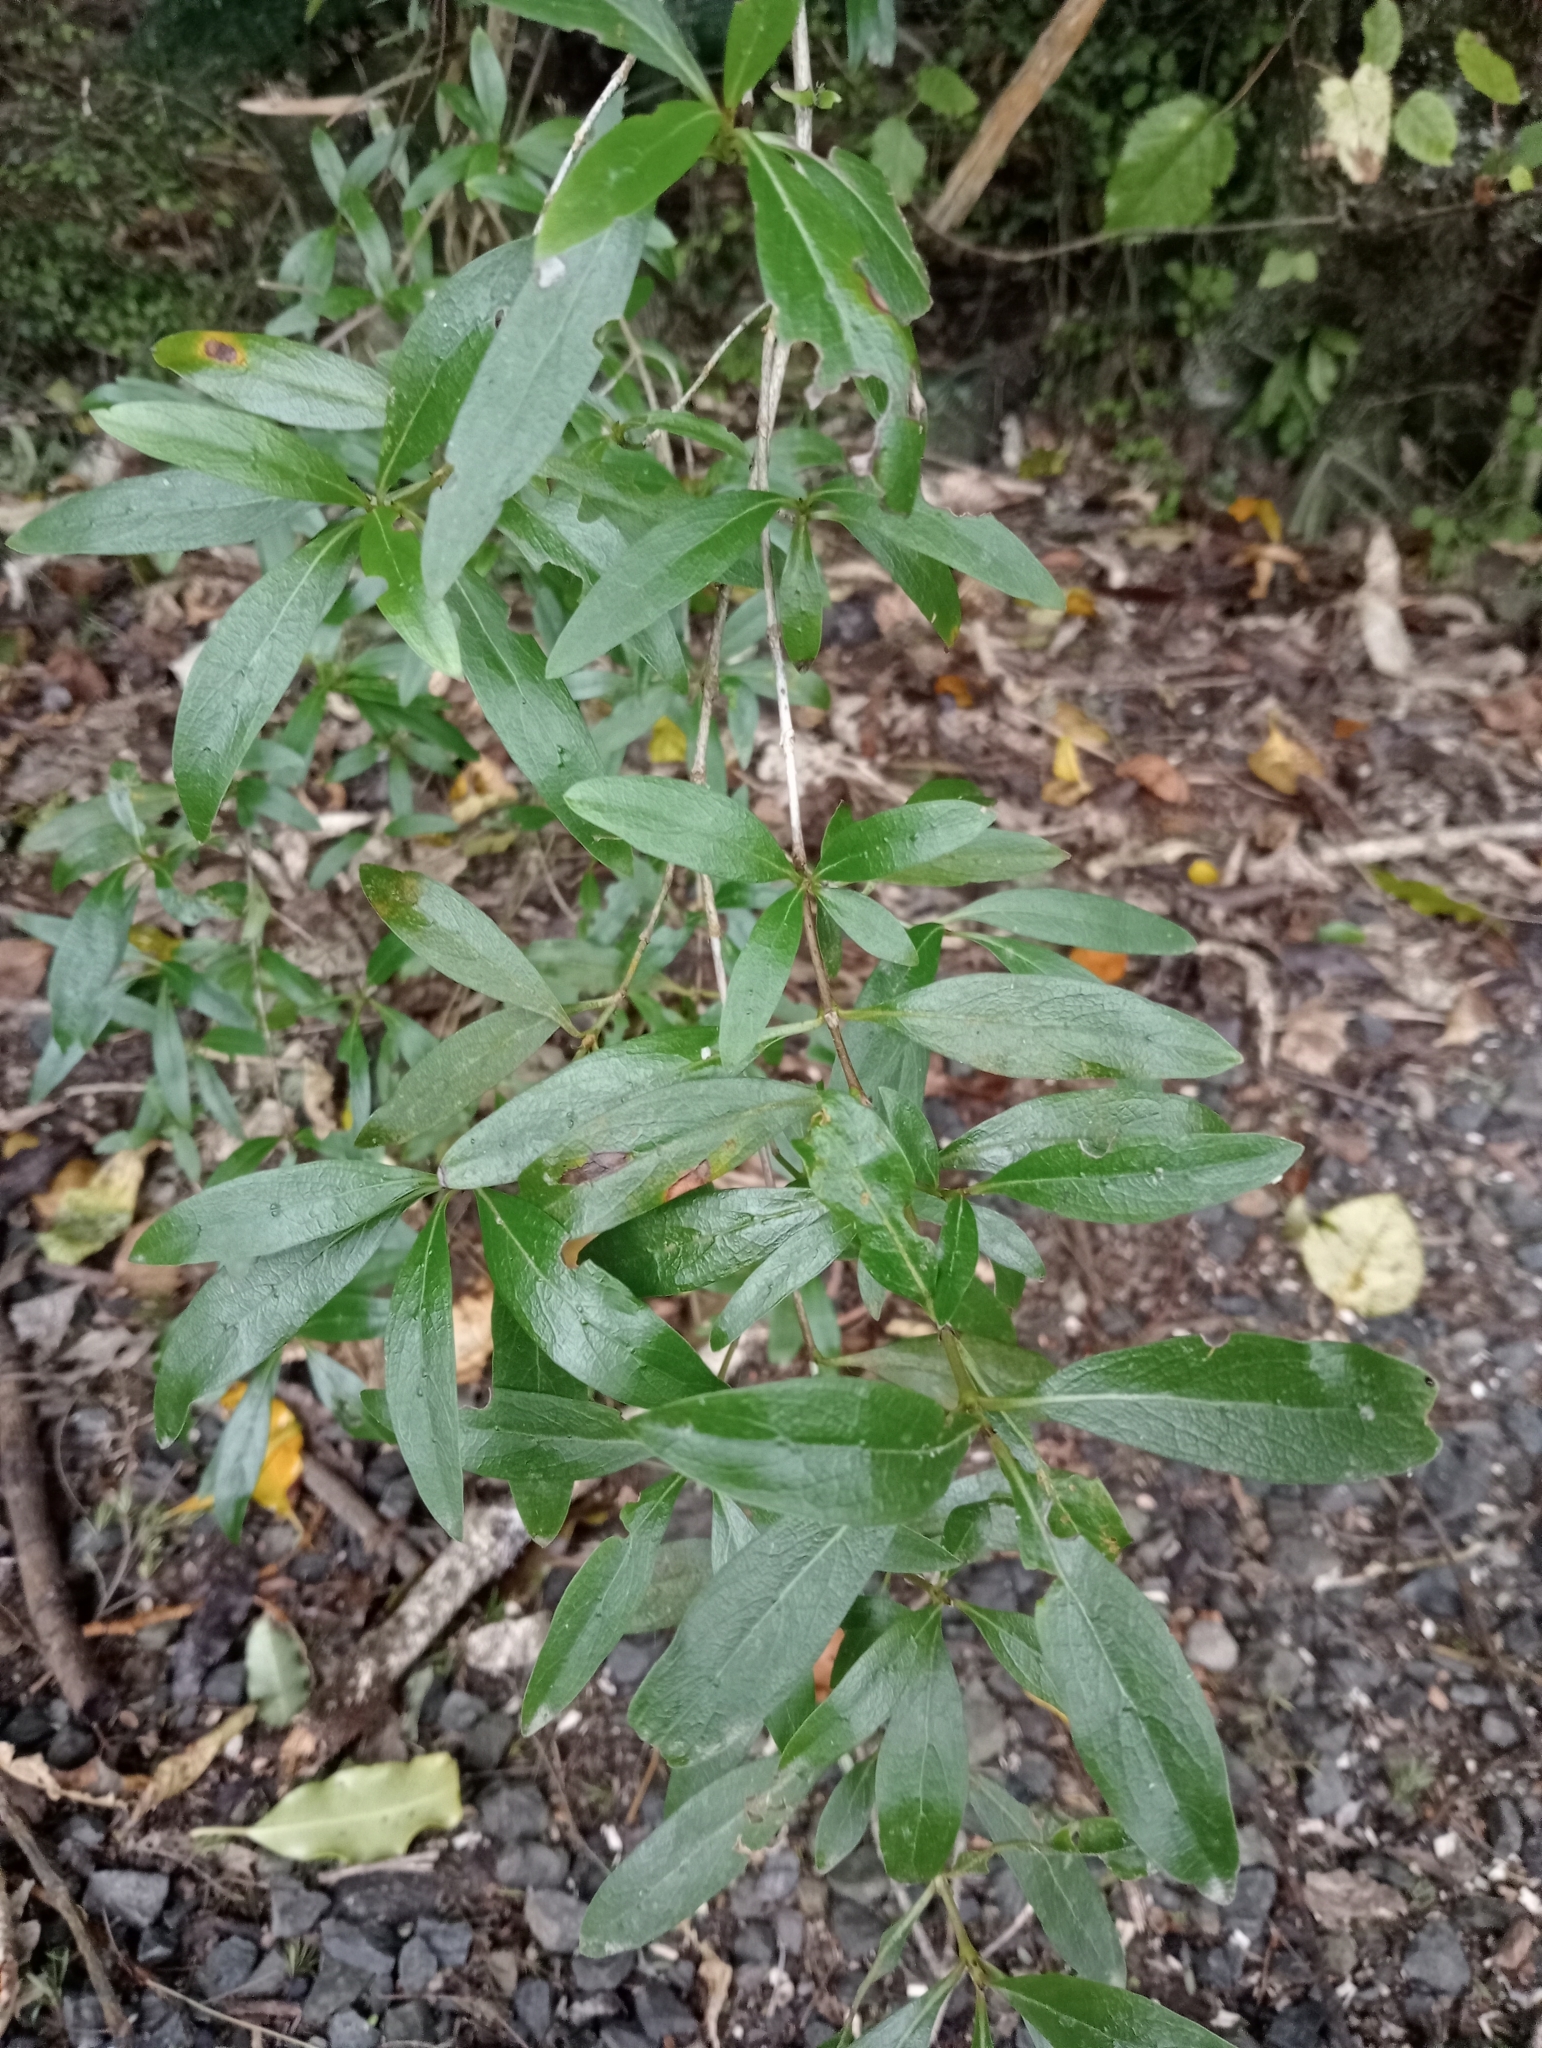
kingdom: Plantae
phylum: Tracheophyta
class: Magnoliopsida
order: Gentianales
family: Rubiaceae
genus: Coprosma
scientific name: Coprosma cunninghamii
